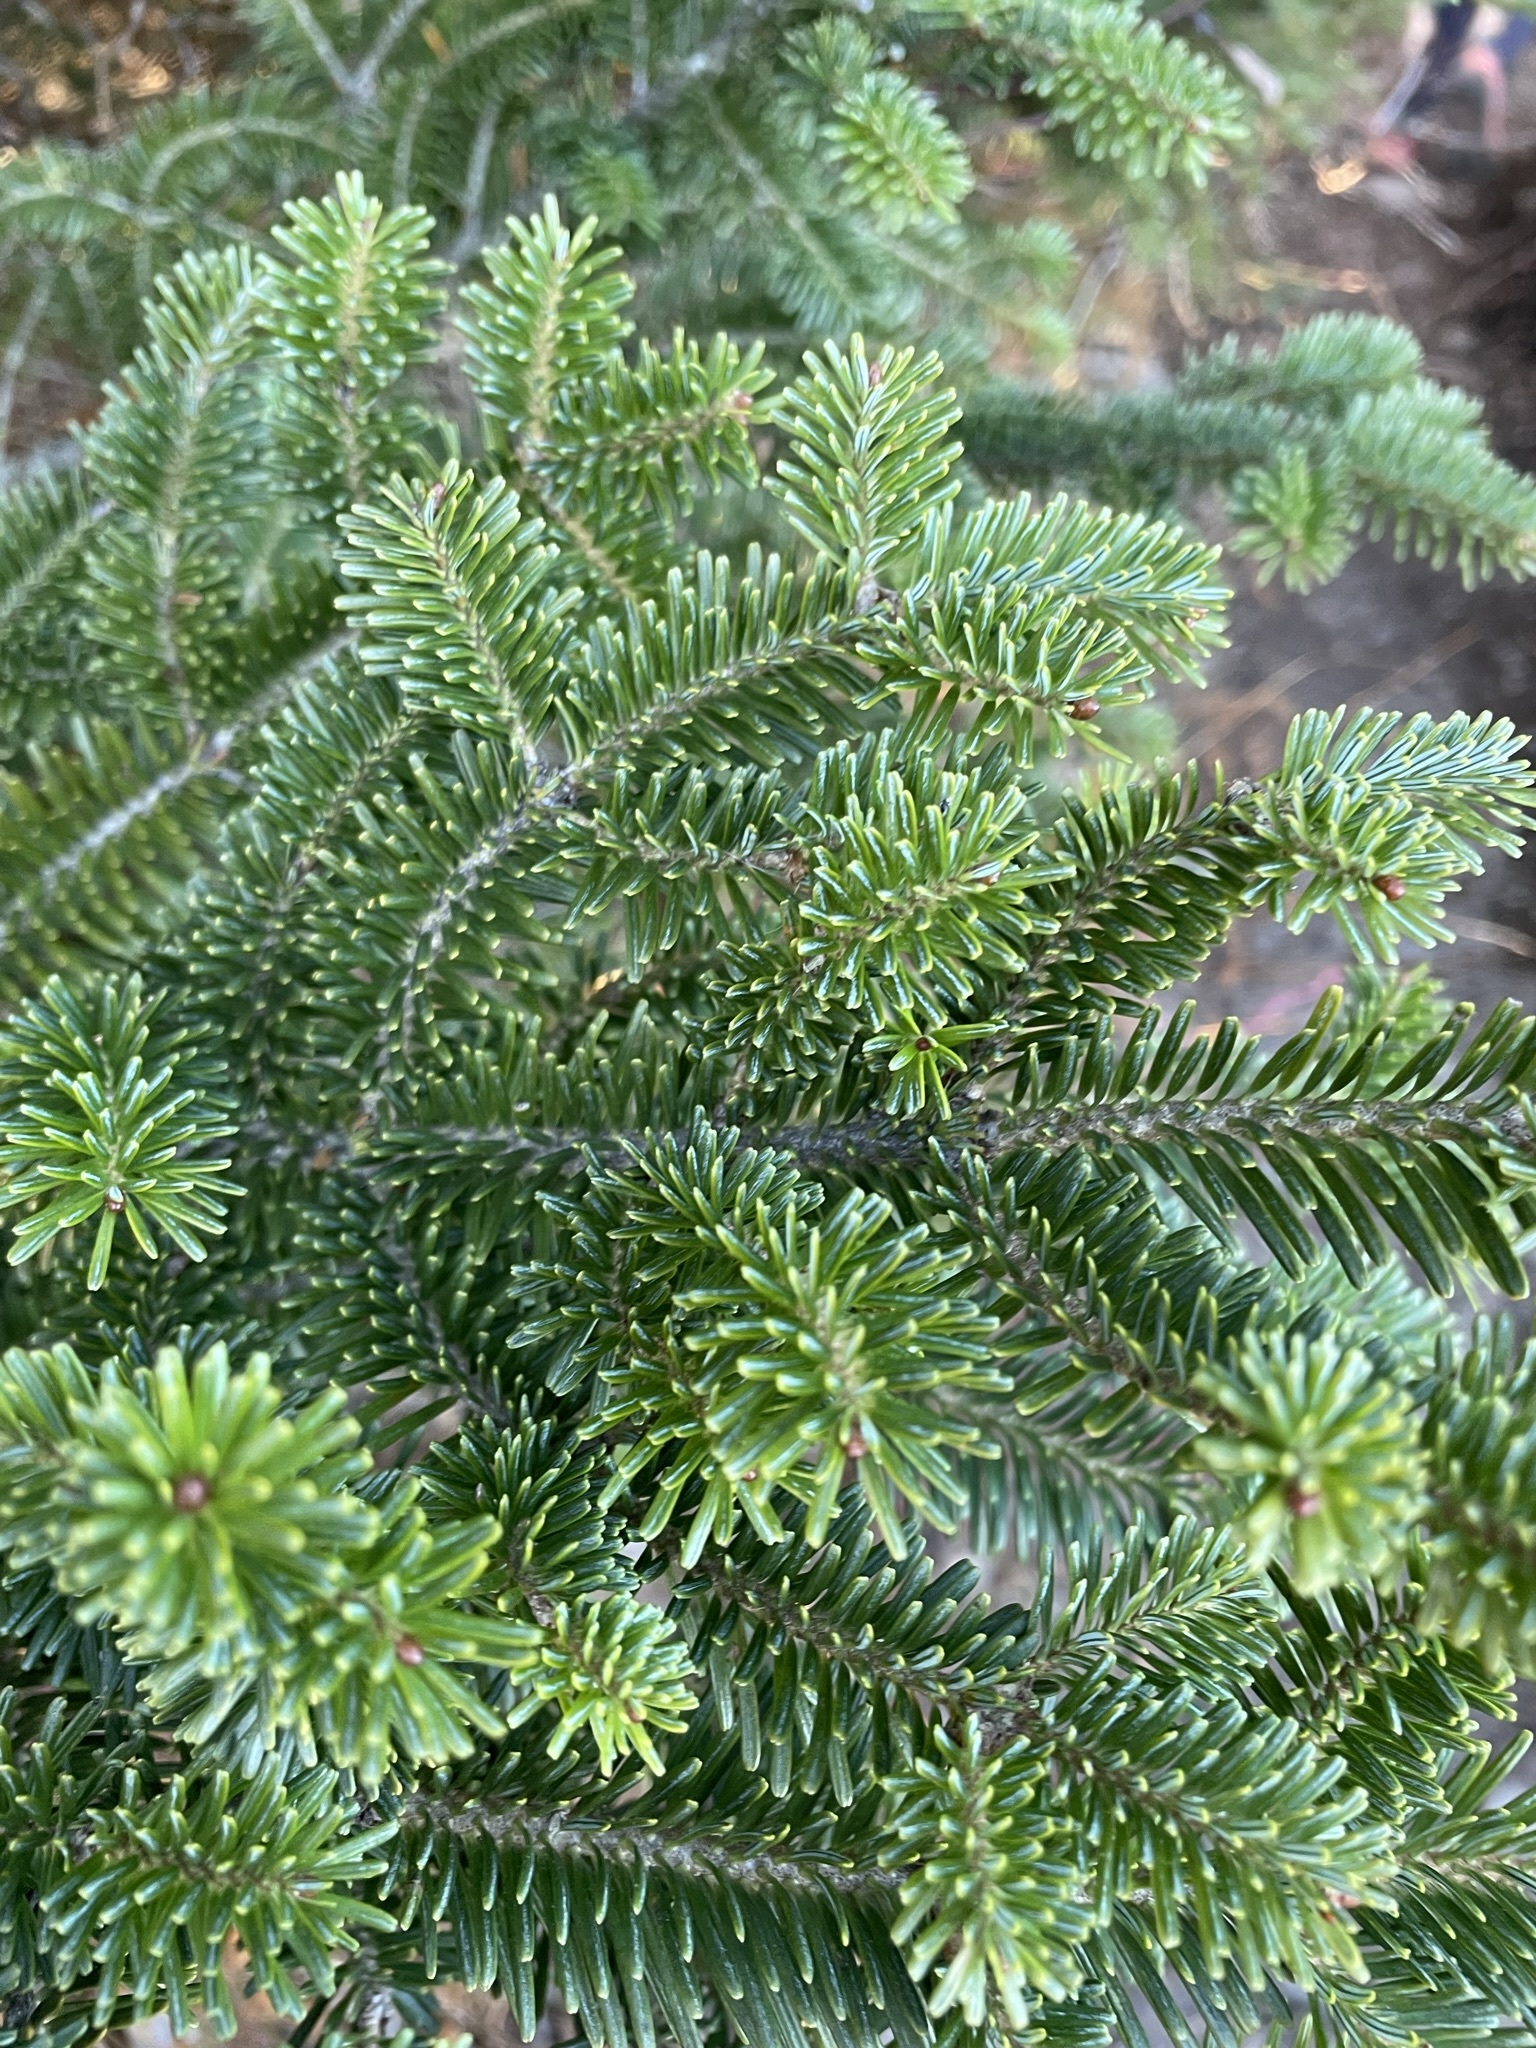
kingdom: Plantae
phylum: Tracheophyta
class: Pinopsida
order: Pinales
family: Pinaceae
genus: Abies
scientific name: Abies fraseri
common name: Fraser fir
